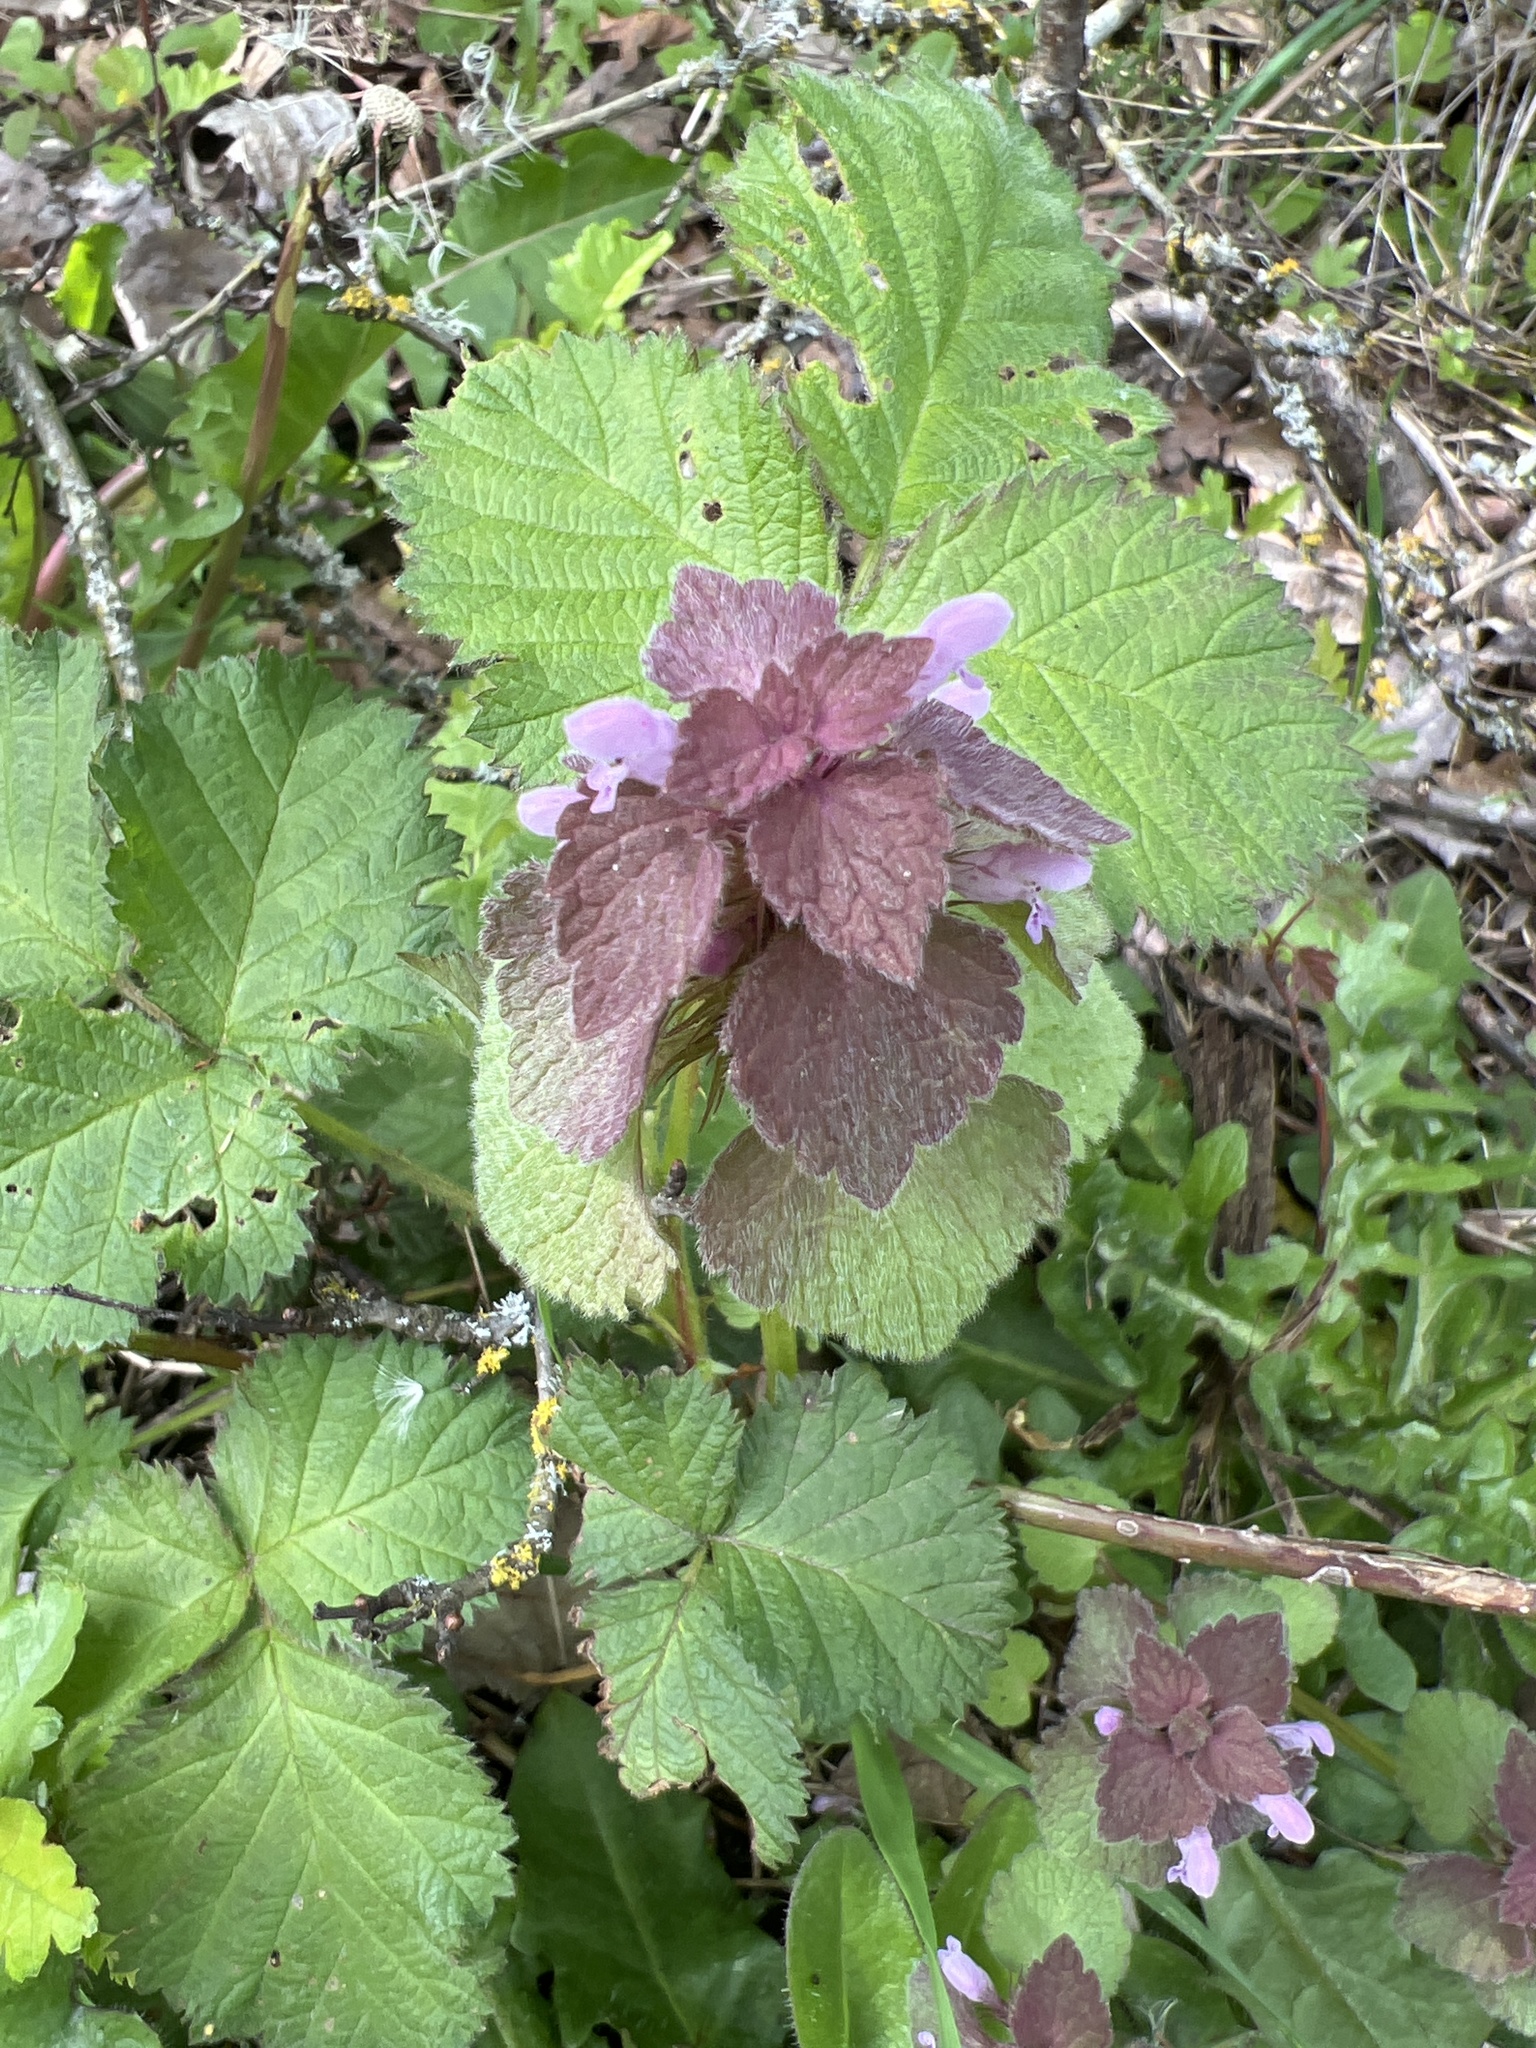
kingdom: Plantae
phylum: Tracheophyta
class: Magnoliopsida
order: Lamiales
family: Lamiaceae
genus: Lamium
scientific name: Lamium purpureum
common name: Red dead-nettle
